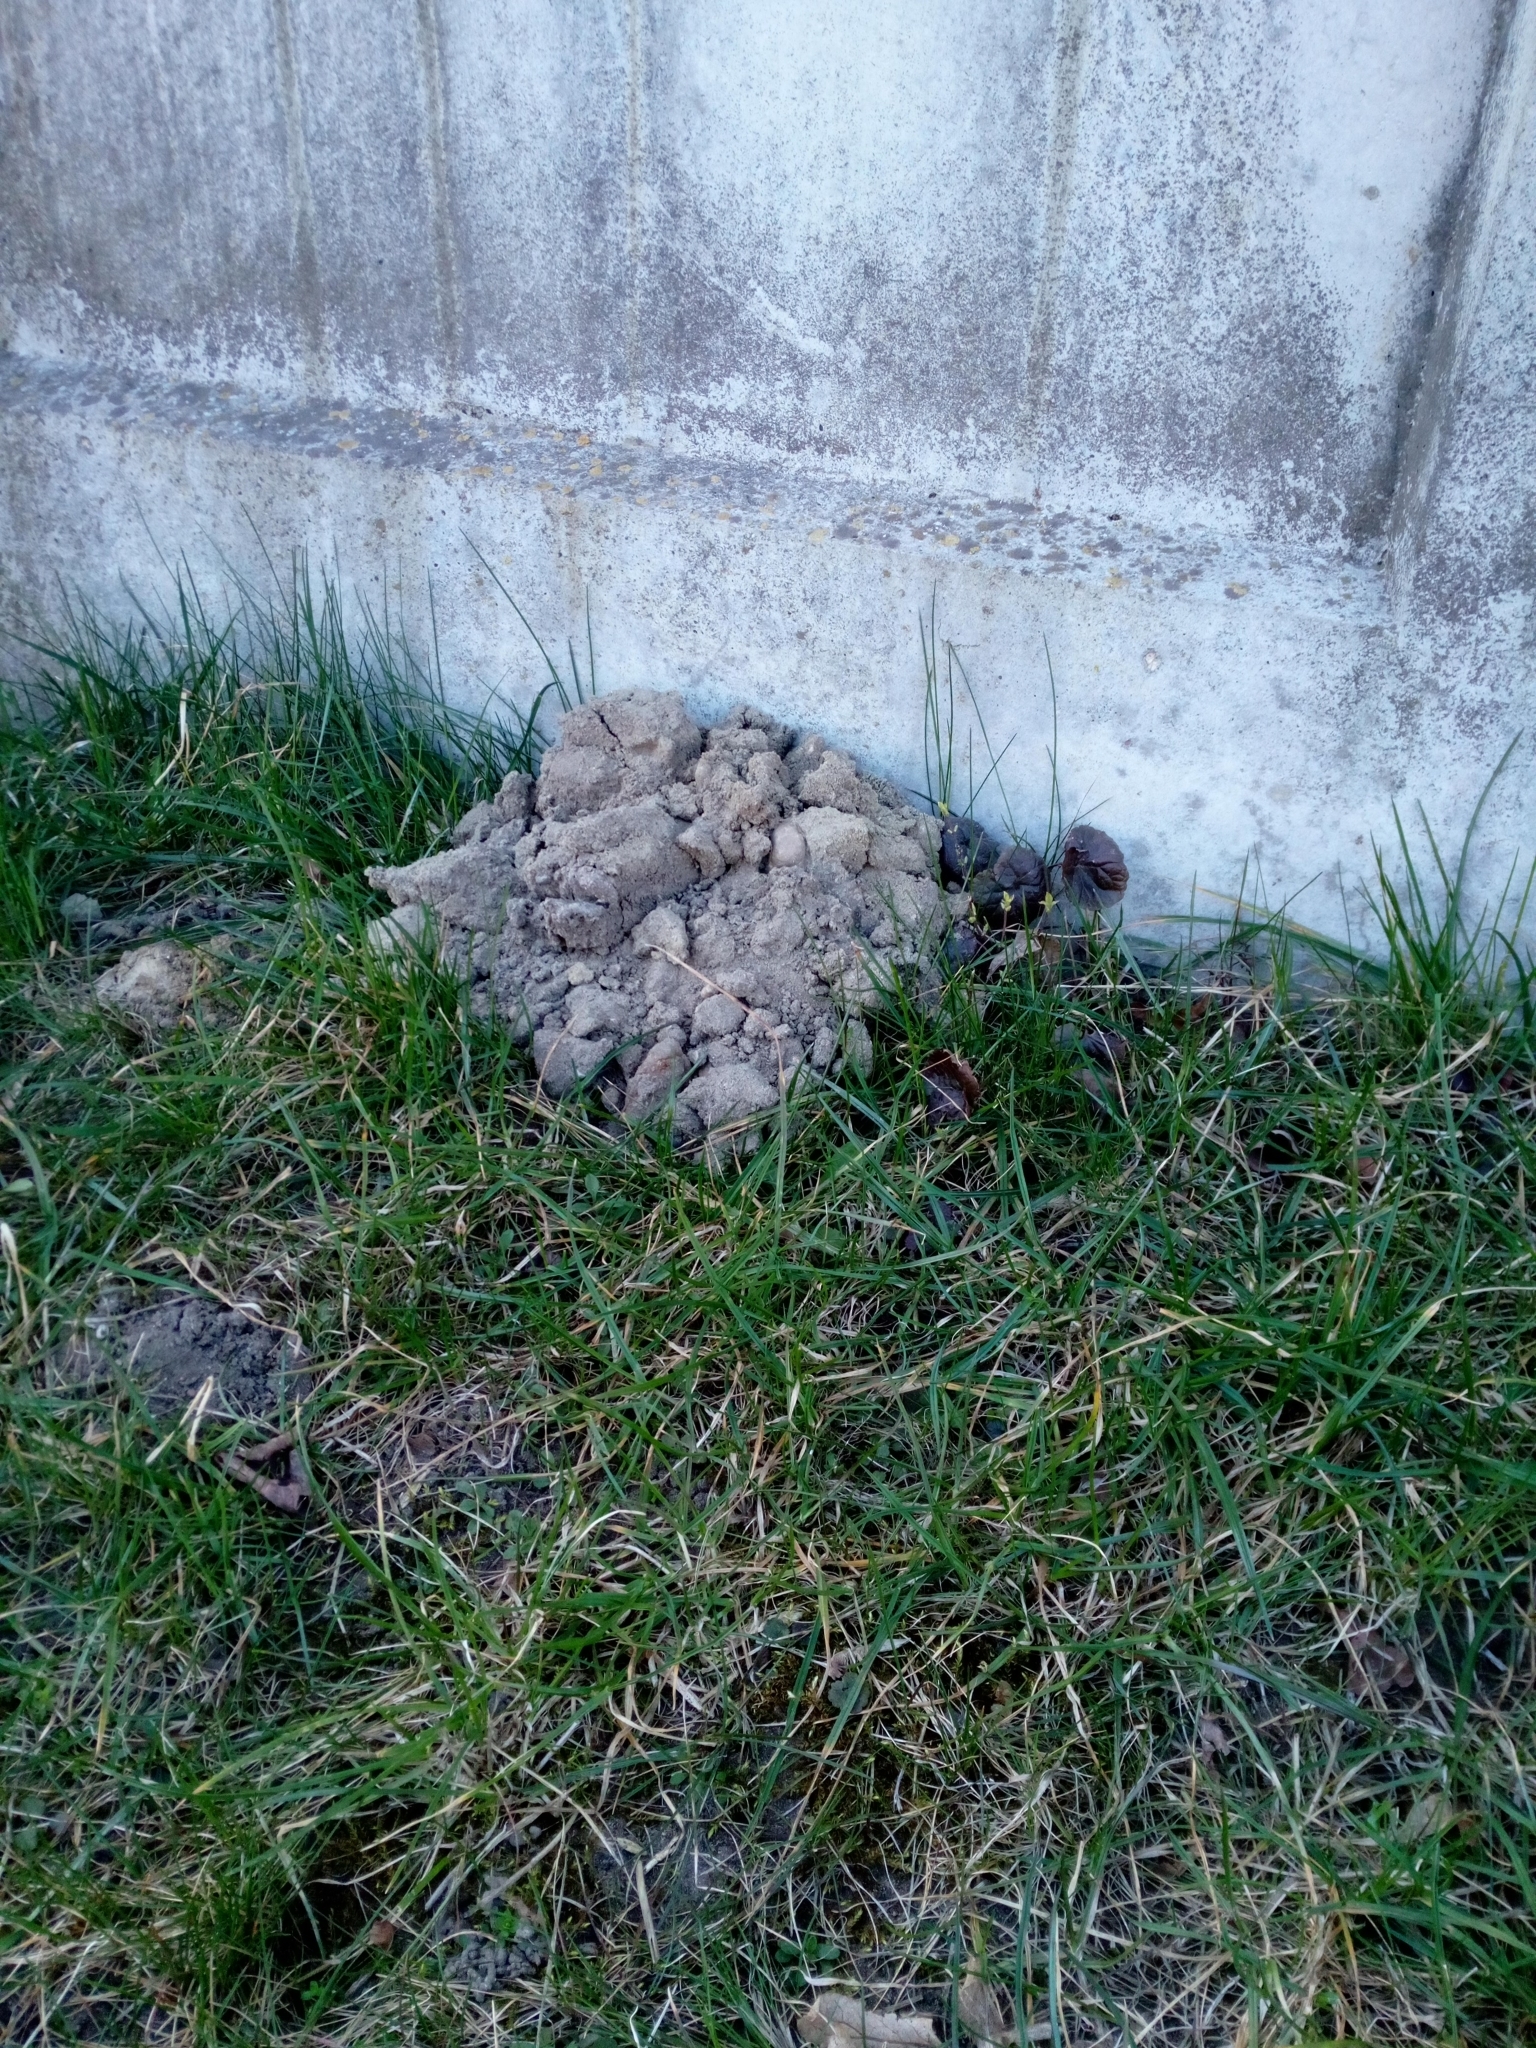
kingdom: Animalia
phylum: Chordata
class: Mammalia
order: Soricomorpha
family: Talpidae
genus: Talpa
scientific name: Talpa europaea
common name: European mole
